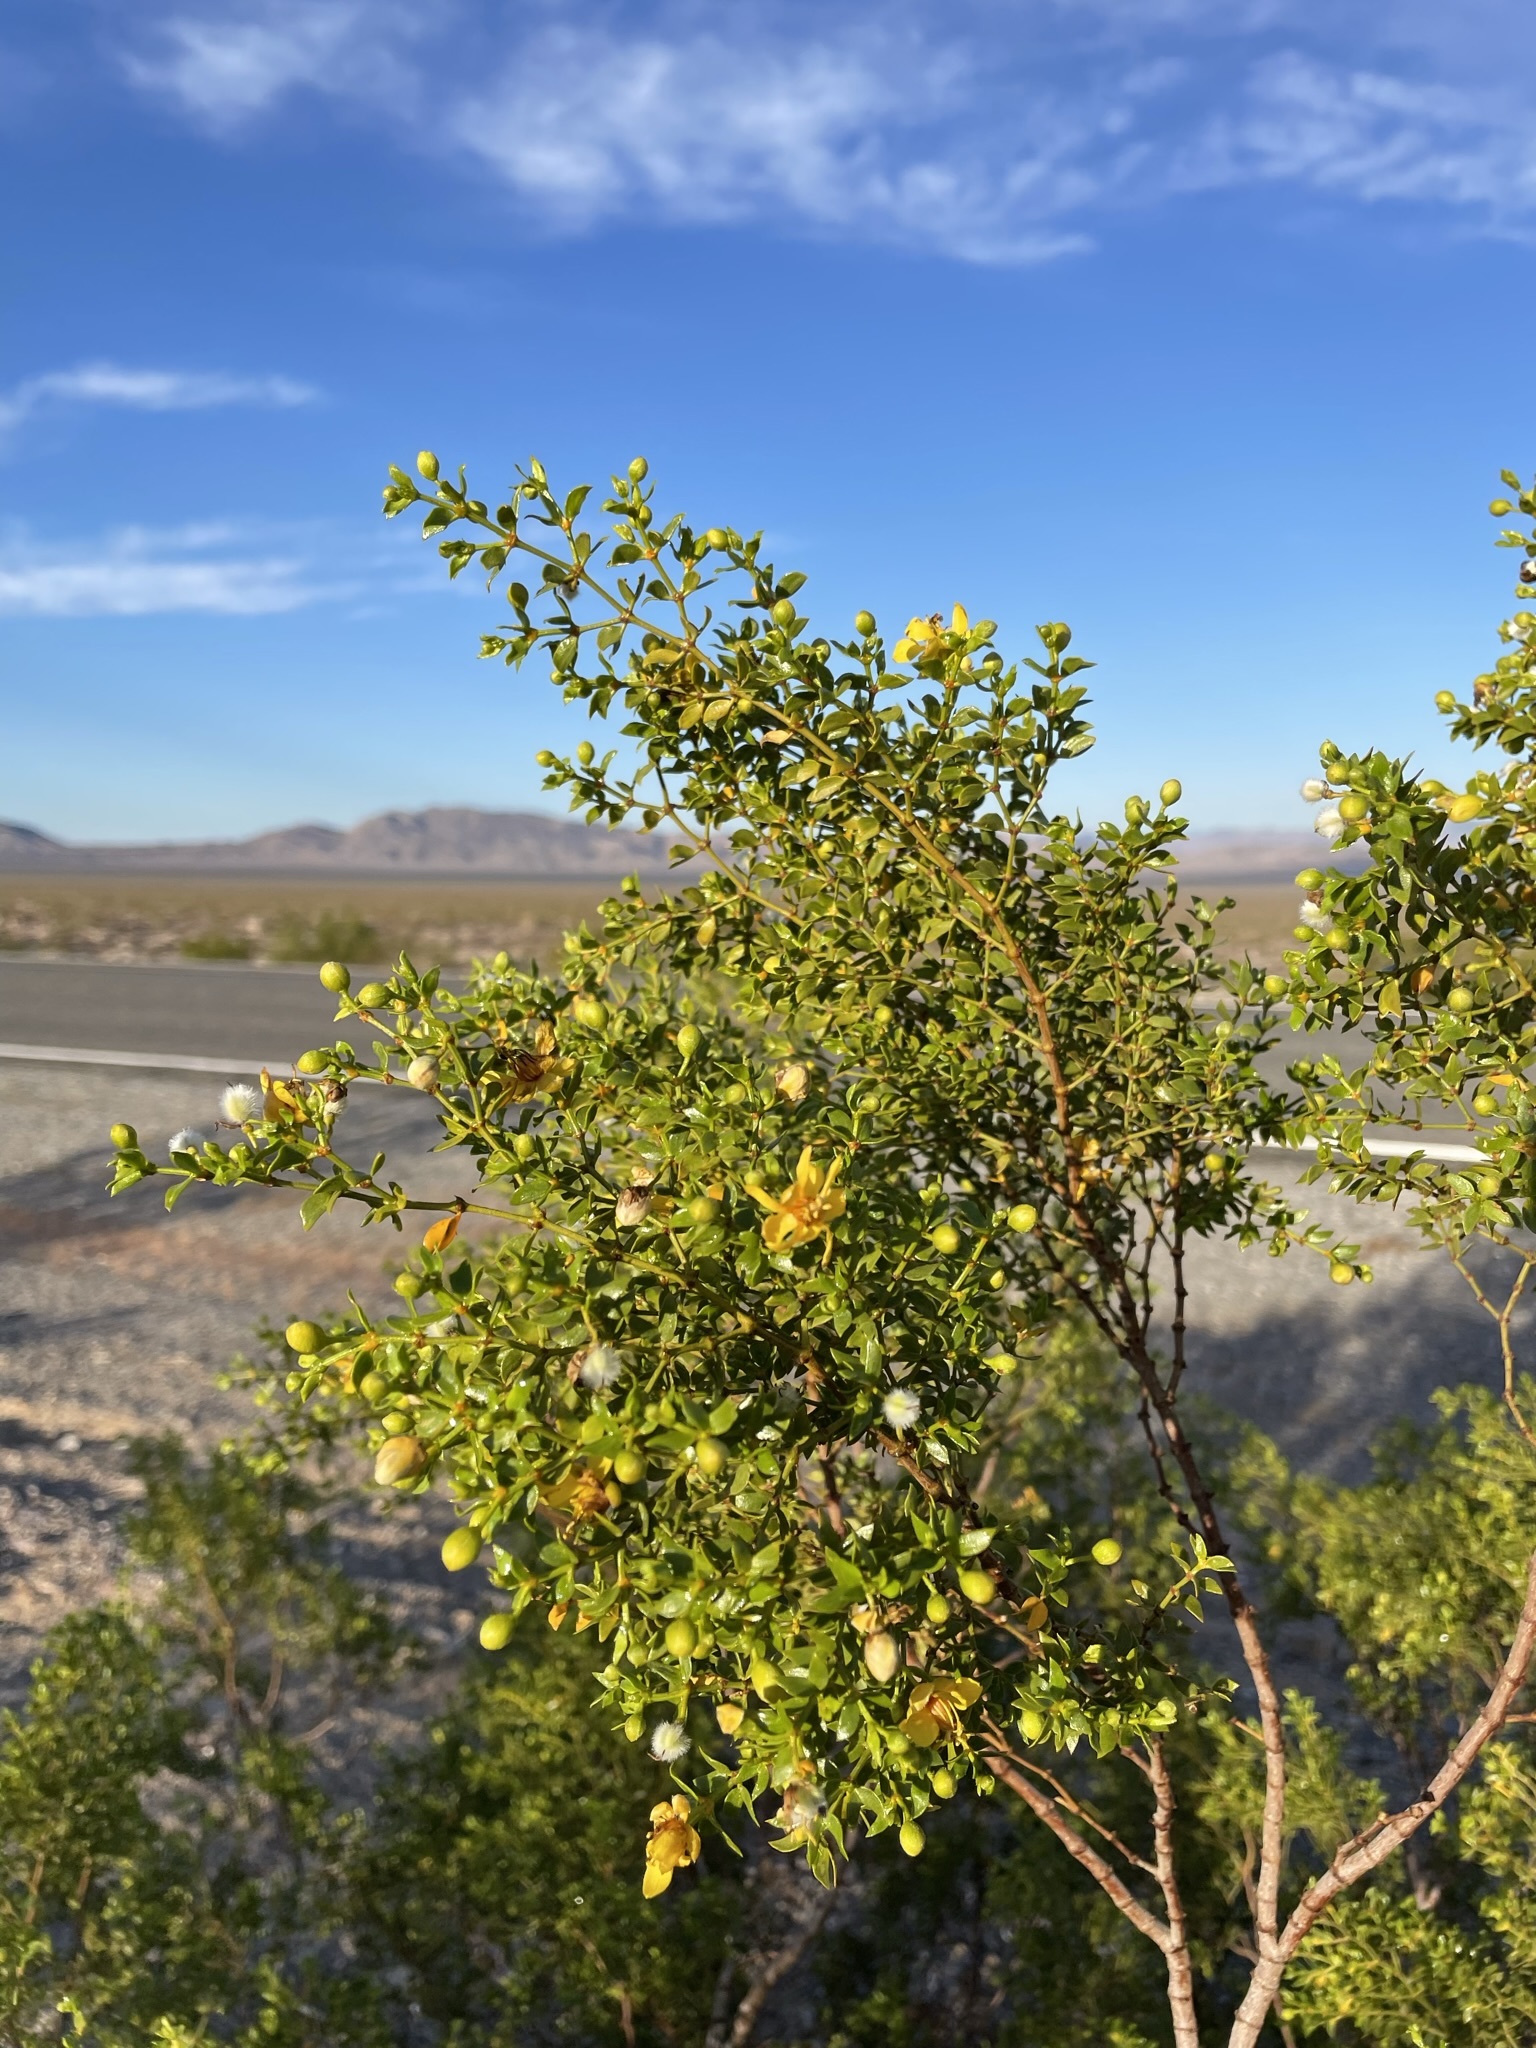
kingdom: Plantae
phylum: Tracheophyta
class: Magnoliopsida
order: Zygophyllales
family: Zygophyllaceae
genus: Larrea
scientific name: Larrea tridentata
